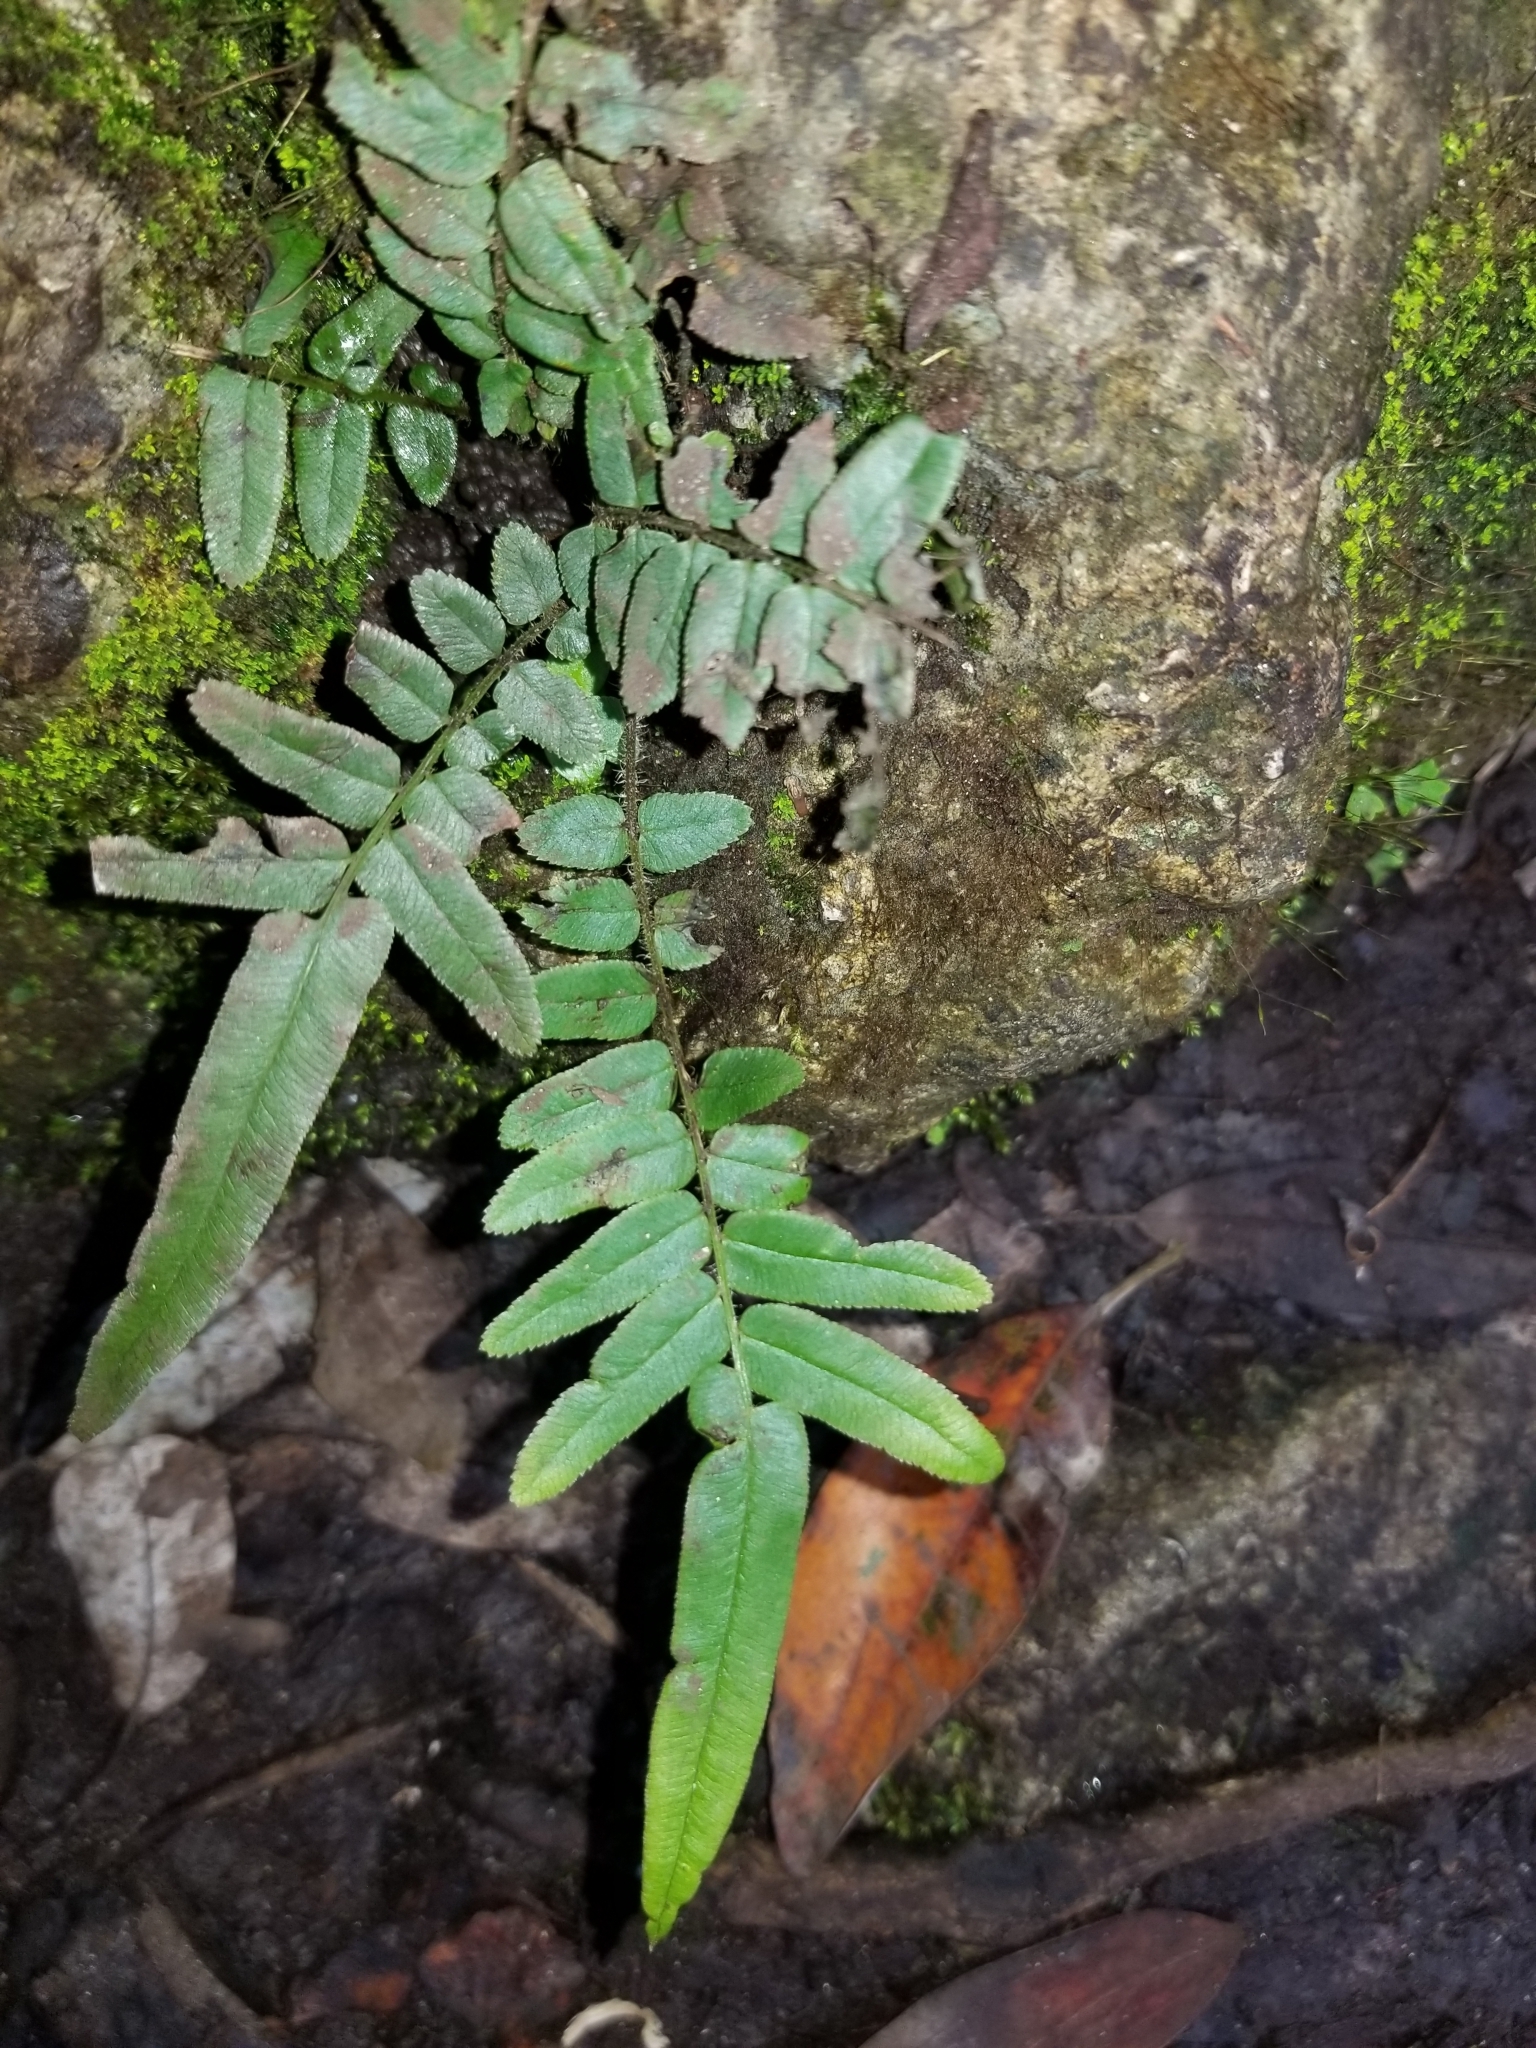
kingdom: Plantae
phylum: Tracheophyta
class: Polypodiopsida
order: Polypodiales
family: Pteridaceae
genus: Pteris
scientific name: Pteris vittata
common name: Ladder brake
